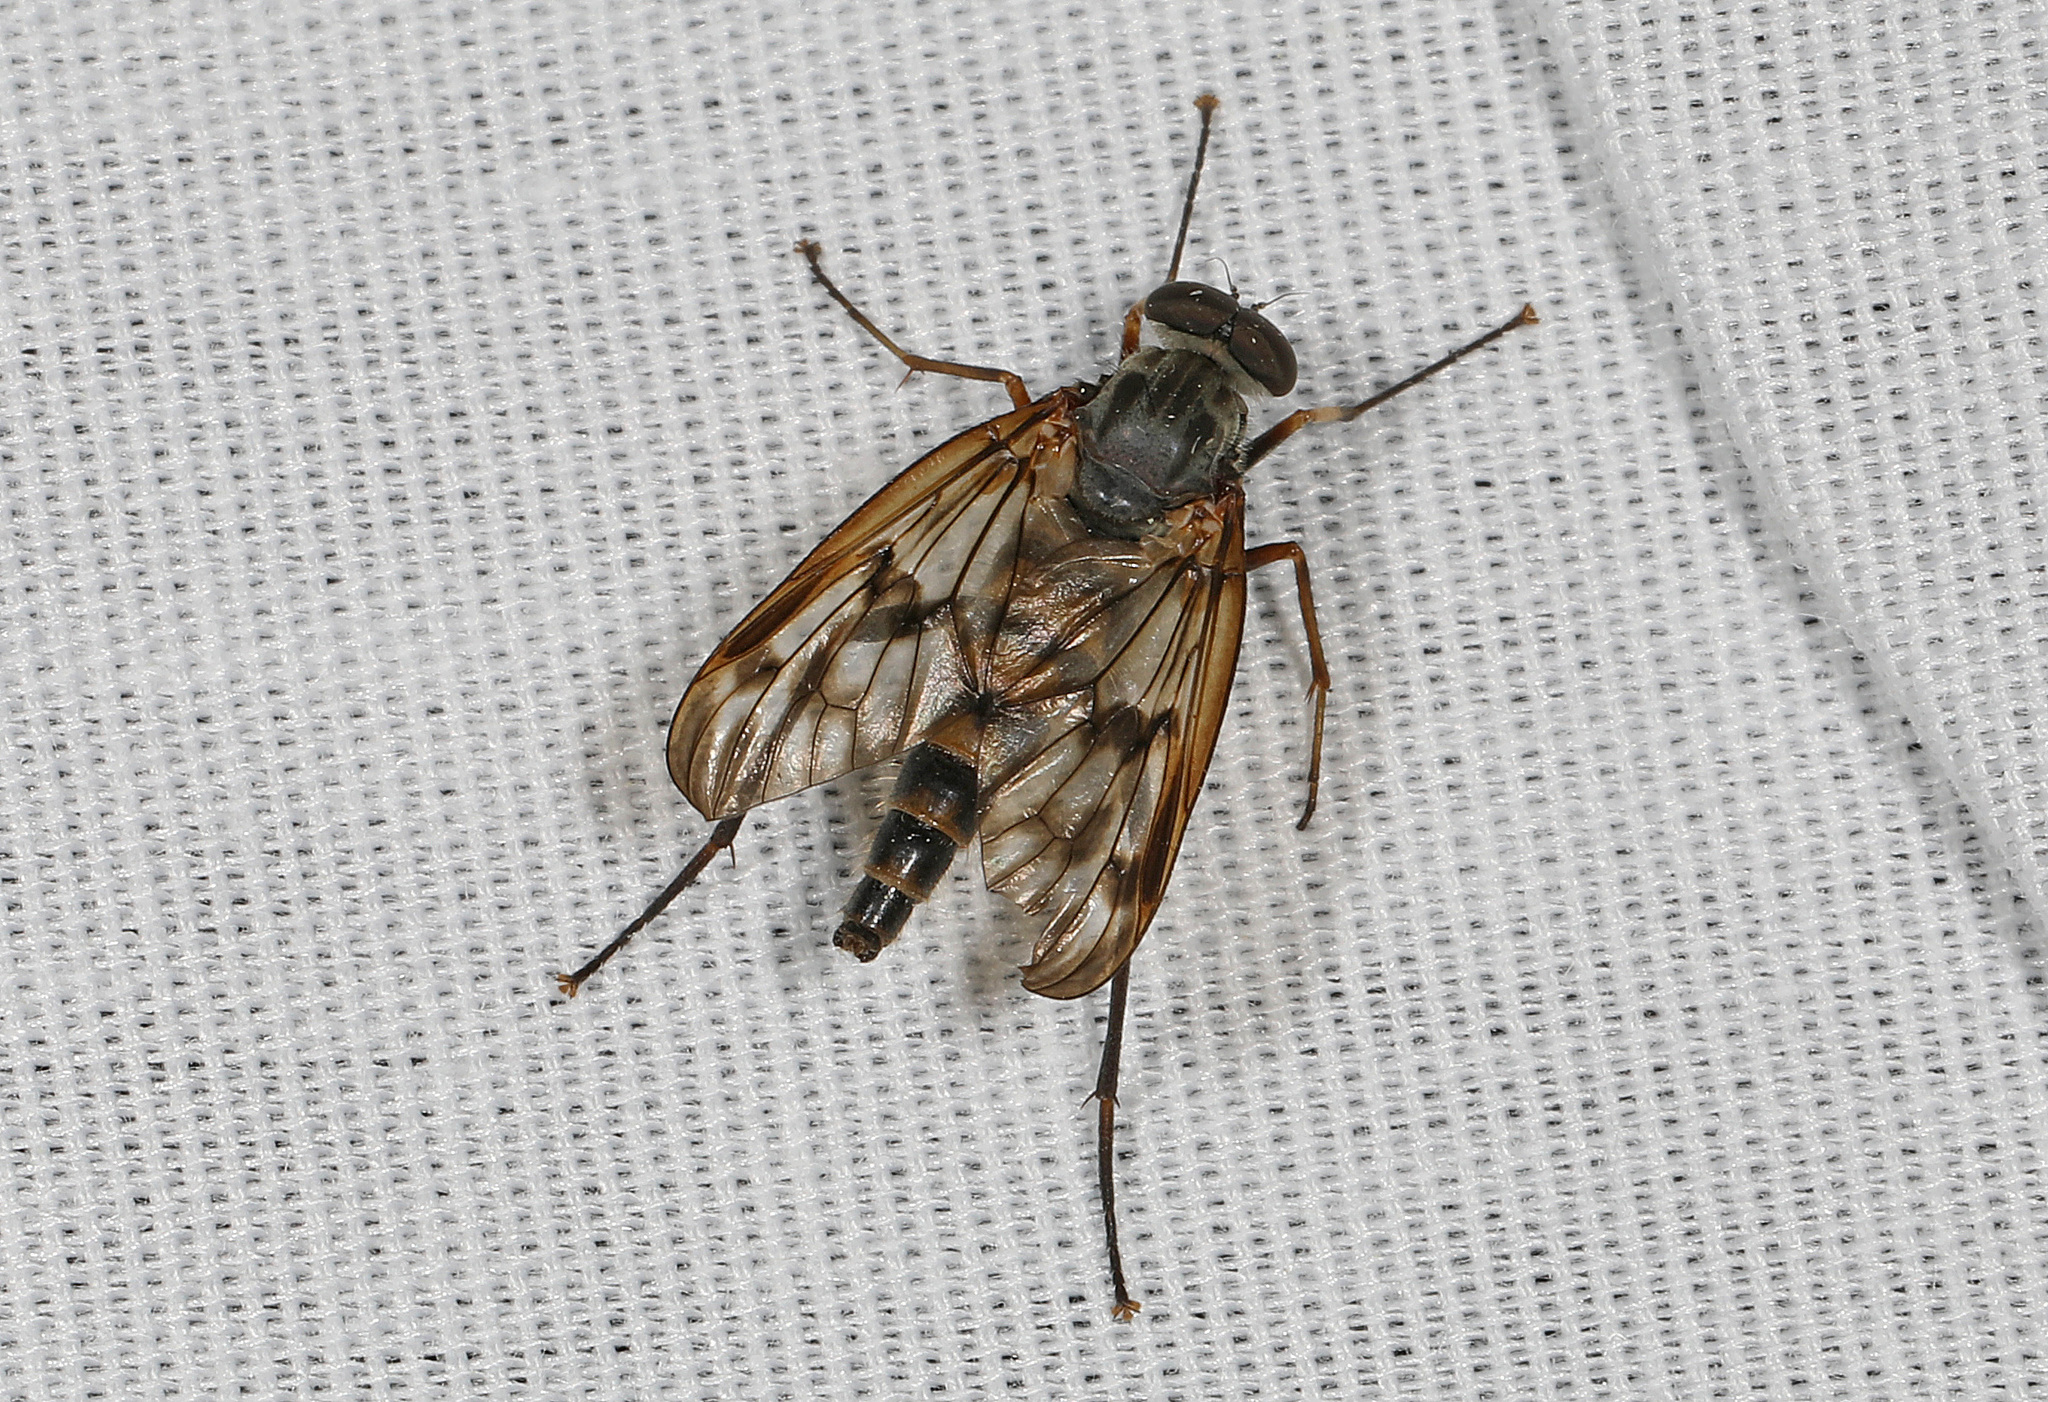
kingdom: Animalia
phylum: Arthropoda
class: Insecta
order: Diptera
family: Rhagionidae
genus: Rhagio
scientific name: Rhagio mystaceus
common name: Common snipe fly
